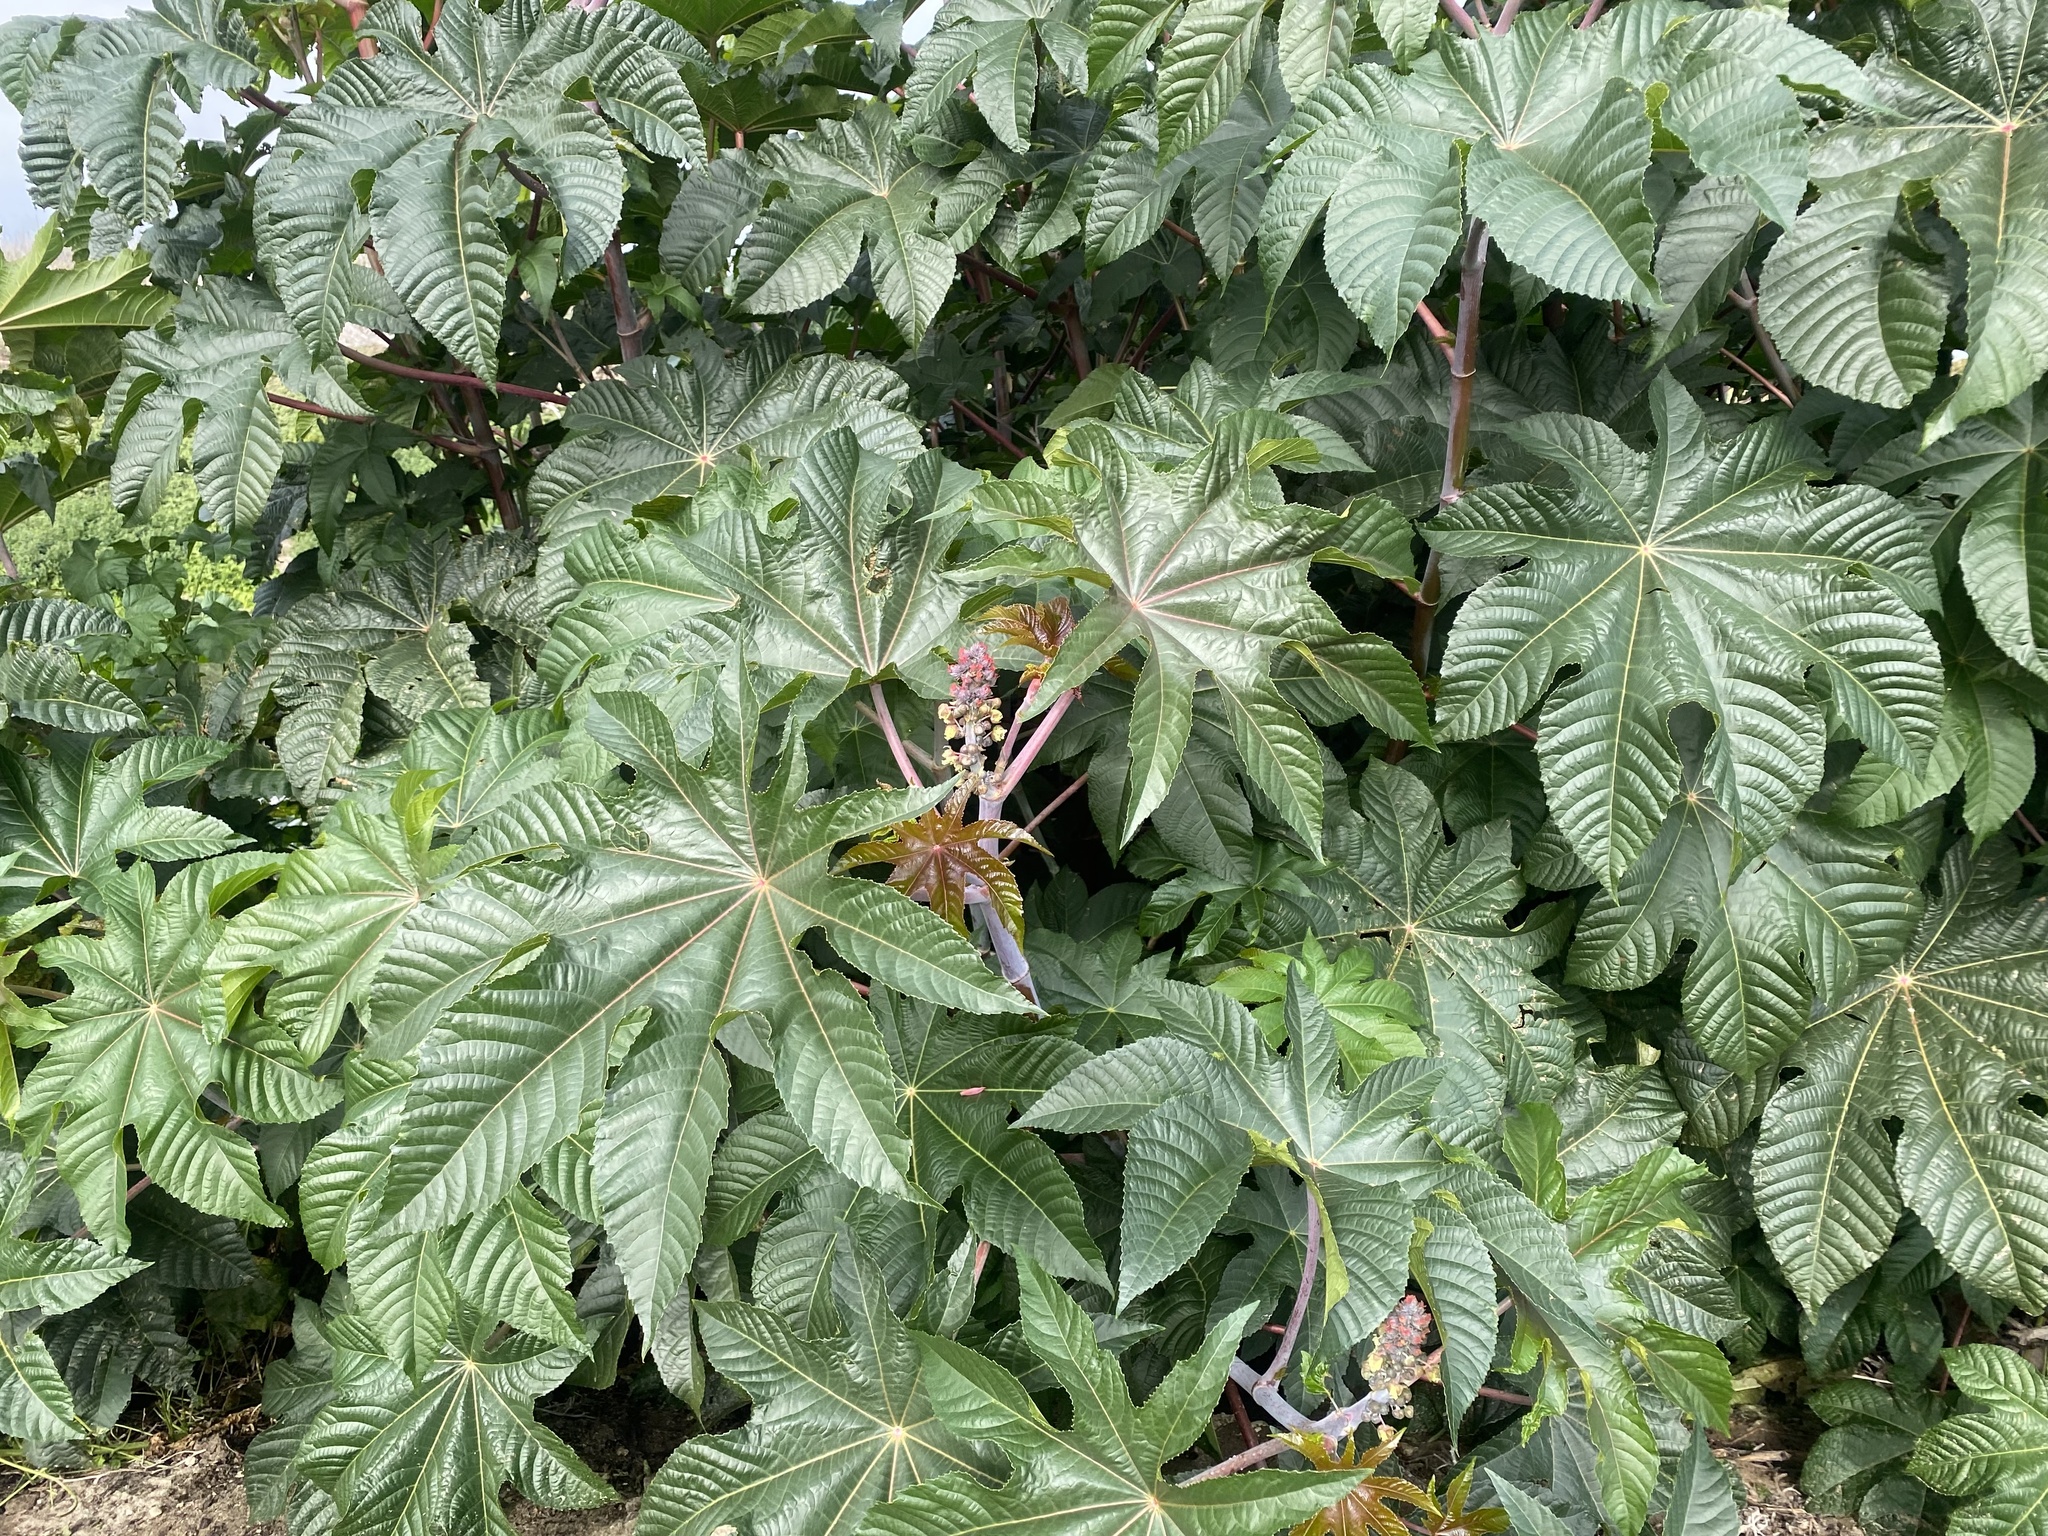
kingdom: Plantae
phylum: Tracheophyta
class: Magnoliopsida
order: Malpighiales
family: Euphorbiaceae
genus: Ricinus
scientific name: Ricinus communis
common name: Castor-oil-plant
